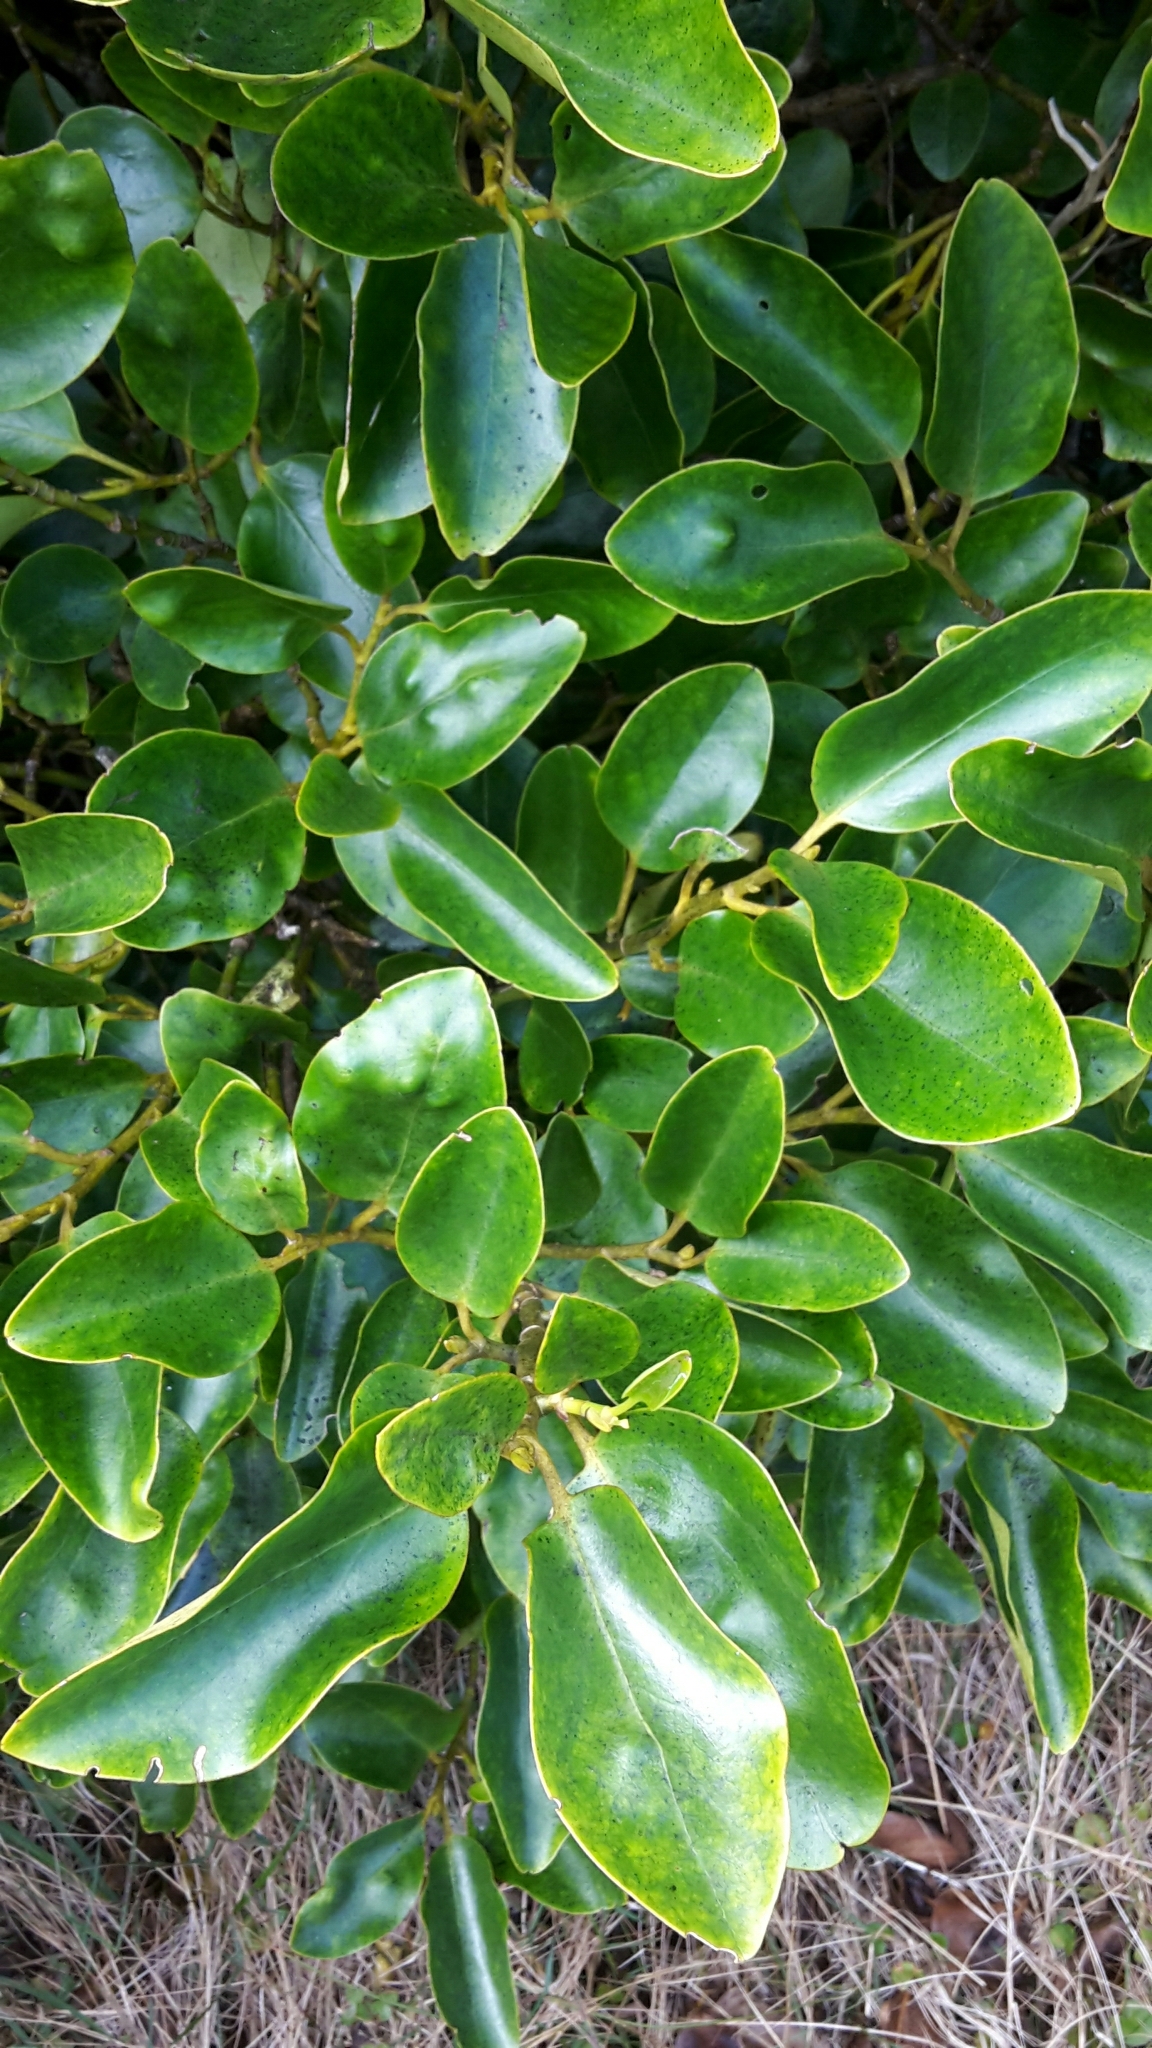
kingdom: Plantae
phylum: Tracheophyta
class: Magnoliopsida
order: Apiales
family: Griseliniaceae
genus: Griselinia
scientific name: Griselinia littoralis
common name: New zealand broadleaf
